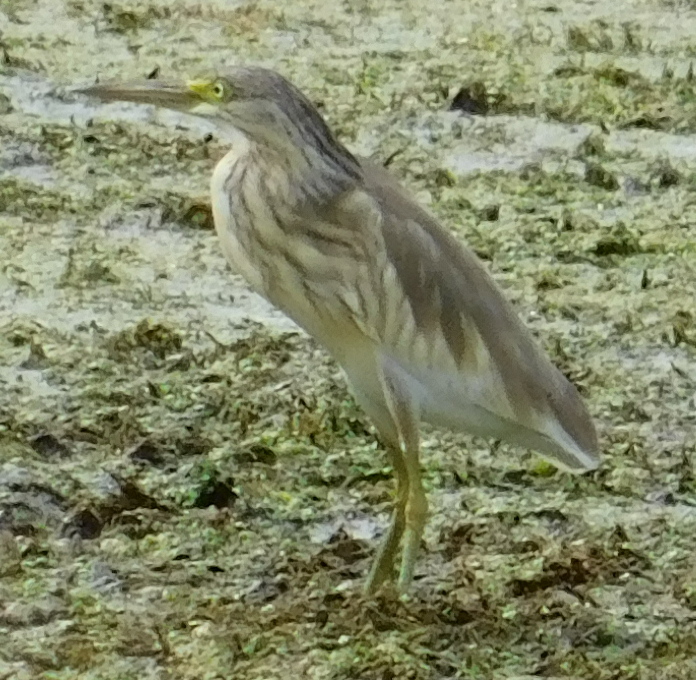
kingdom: Animalia
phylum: Chordata
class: Aves
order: Pelecaniformes
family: Ardeidae
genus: Ardeola
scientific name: Ardeola ralloides
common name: Squacco heron
